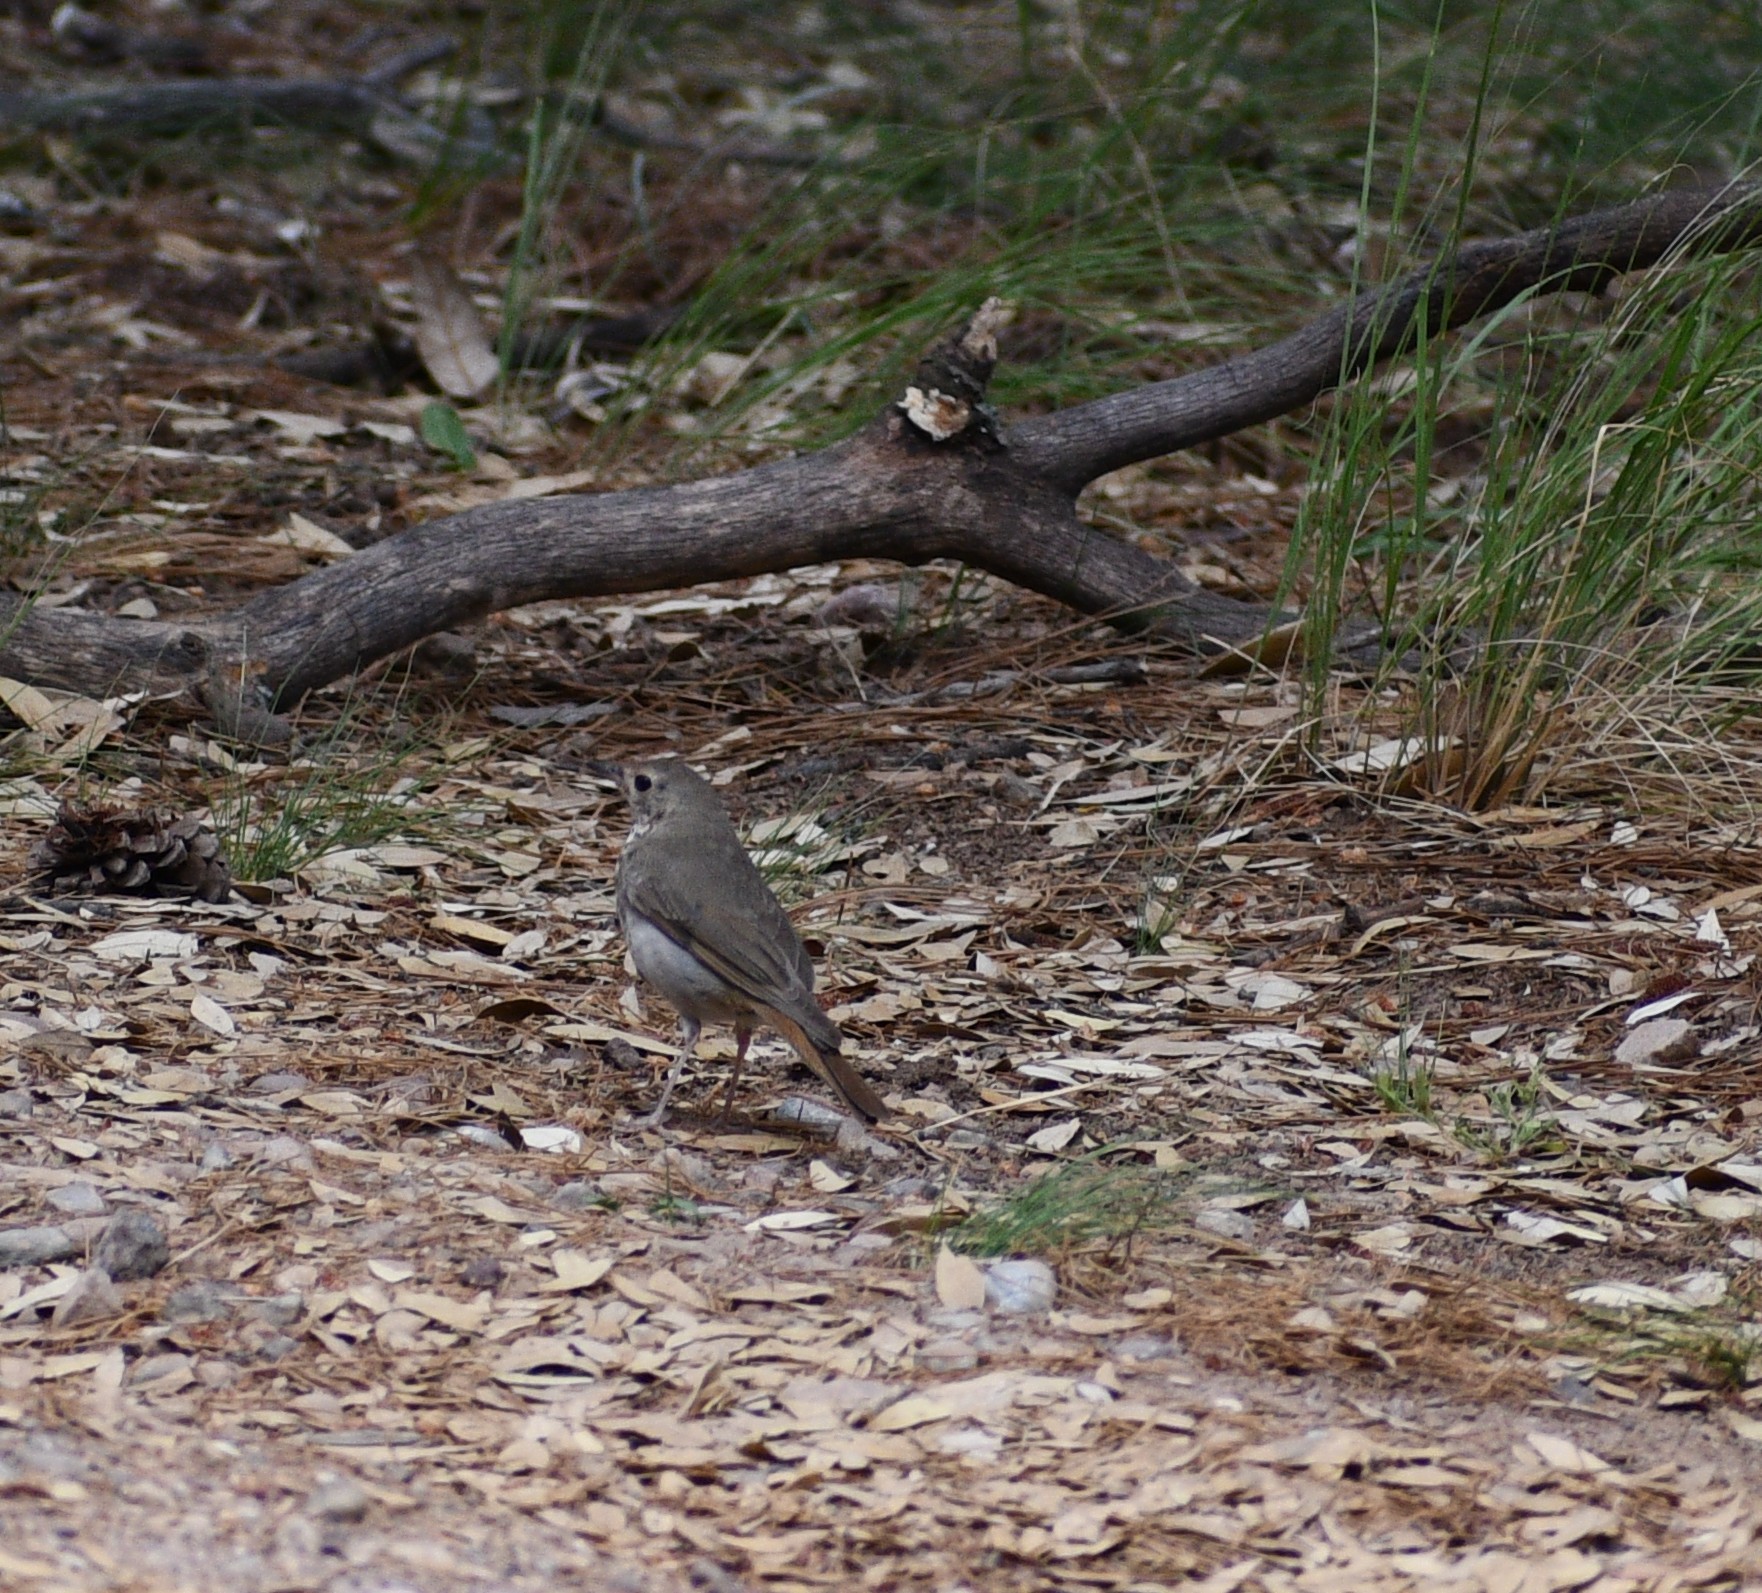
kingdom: Animalia
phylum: Chordata
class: Aves
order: Passeriformes
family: Turdidae
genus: Catharus
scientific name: Catharus guttatus
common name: Hermit thrush
